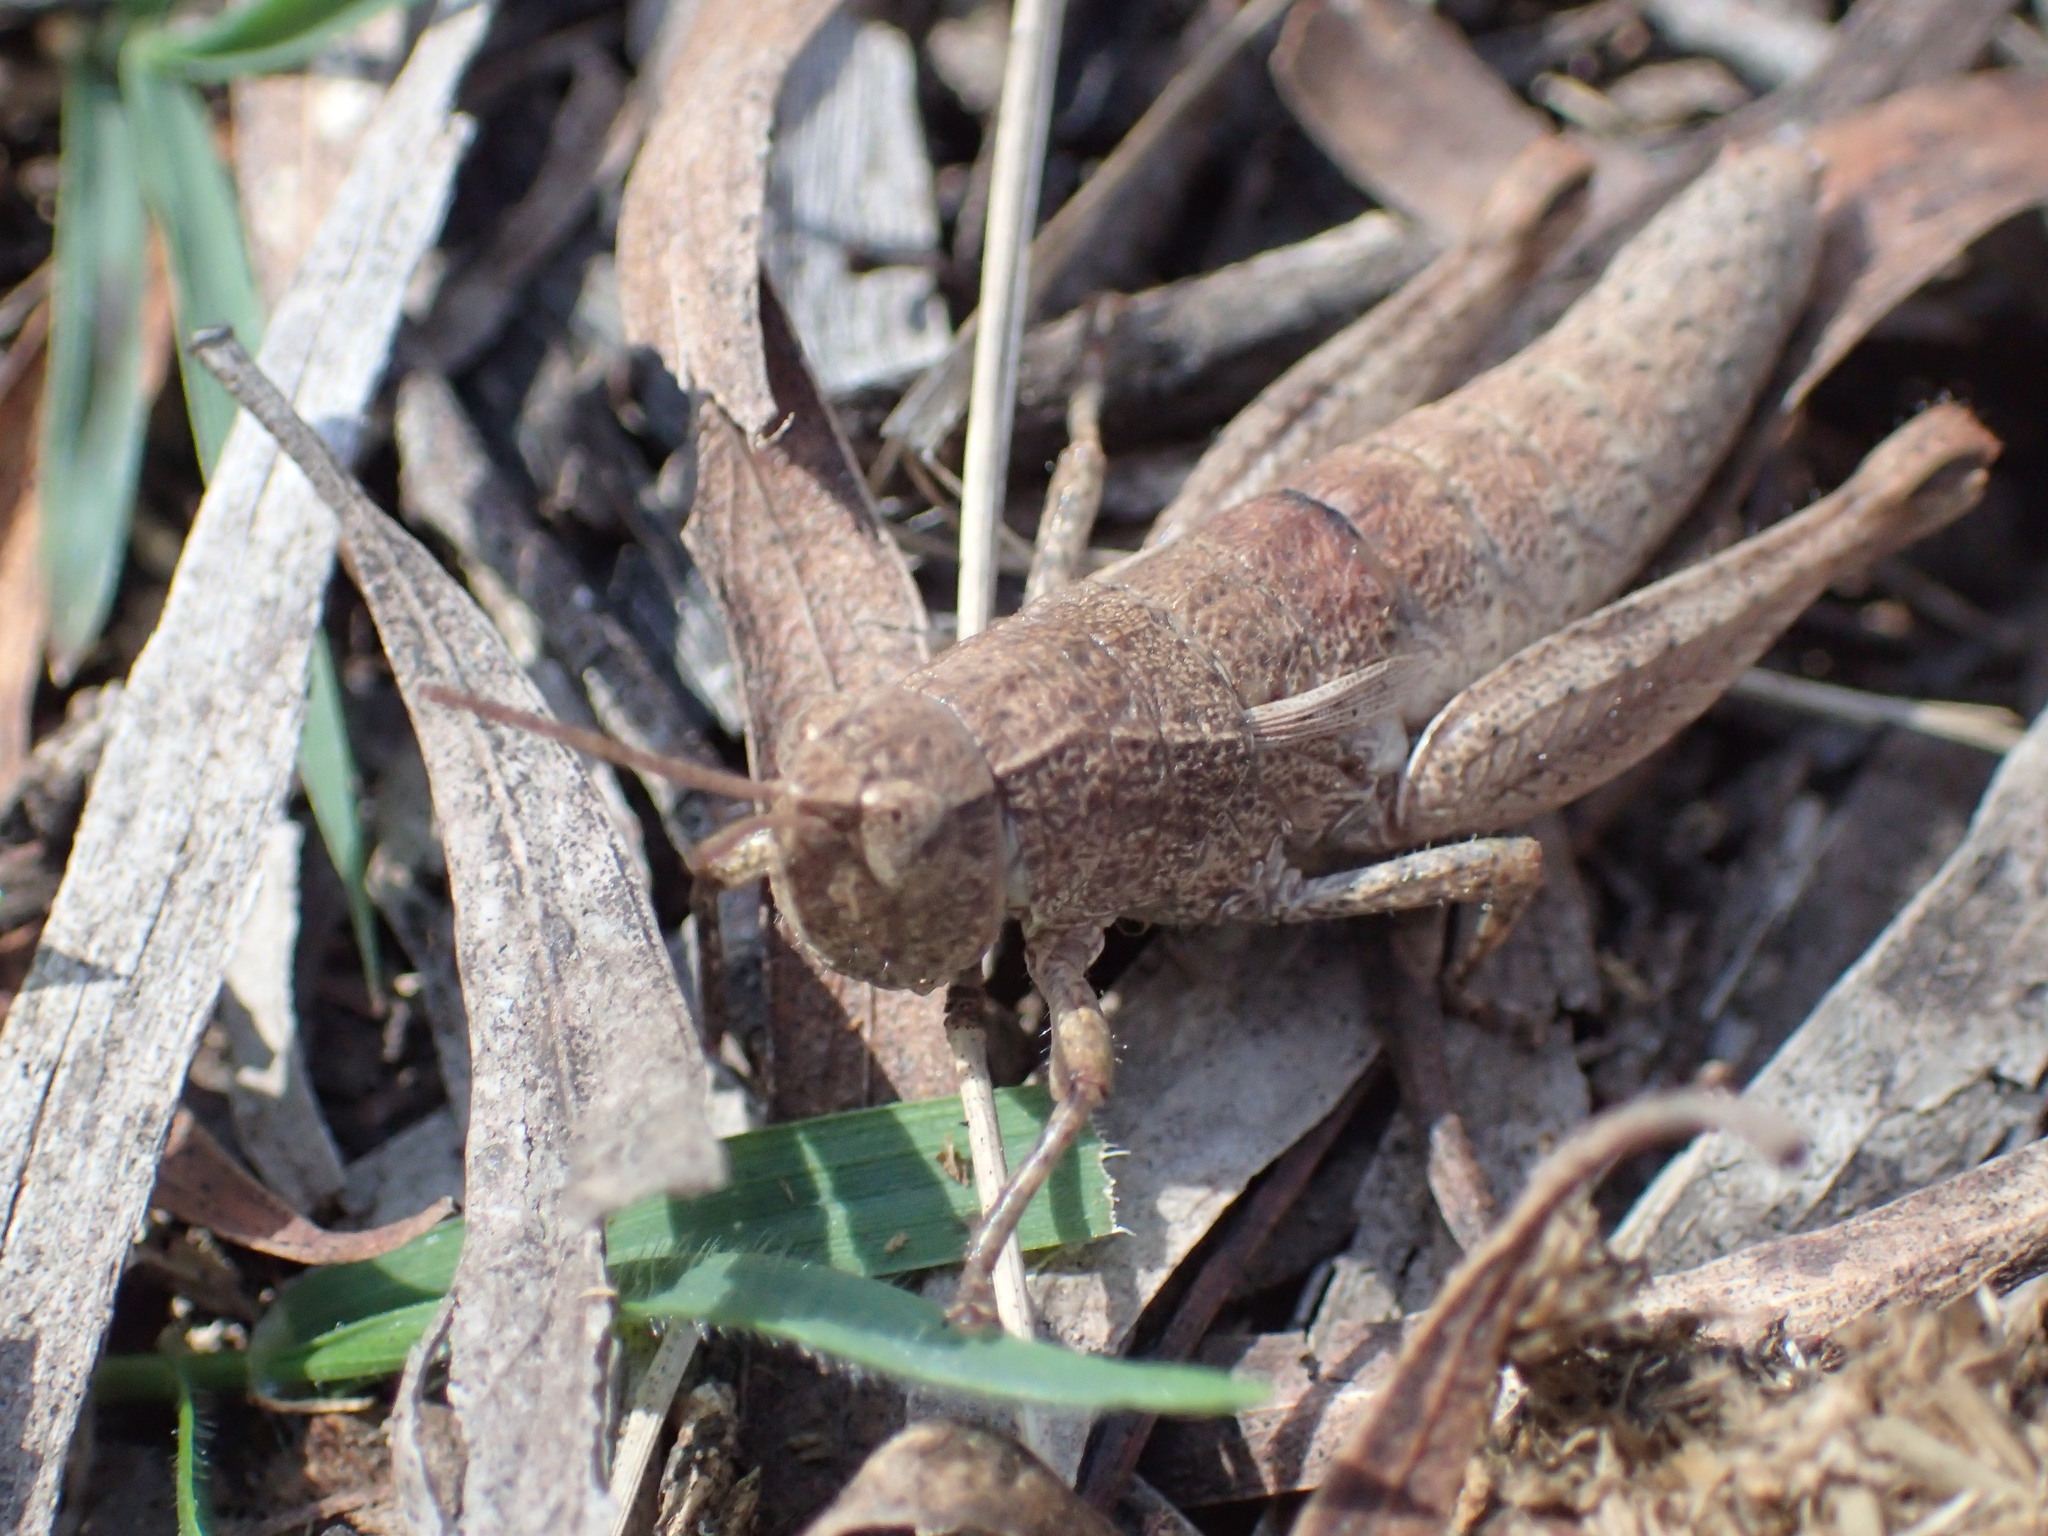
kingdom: Animalia
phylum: Arthropoda
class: Insecta
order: Orthoptera
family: Acrididae
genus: Tasmaniacris
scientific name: Tasmaniacris tasmaniensis
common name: Tasmanian grasshopper
